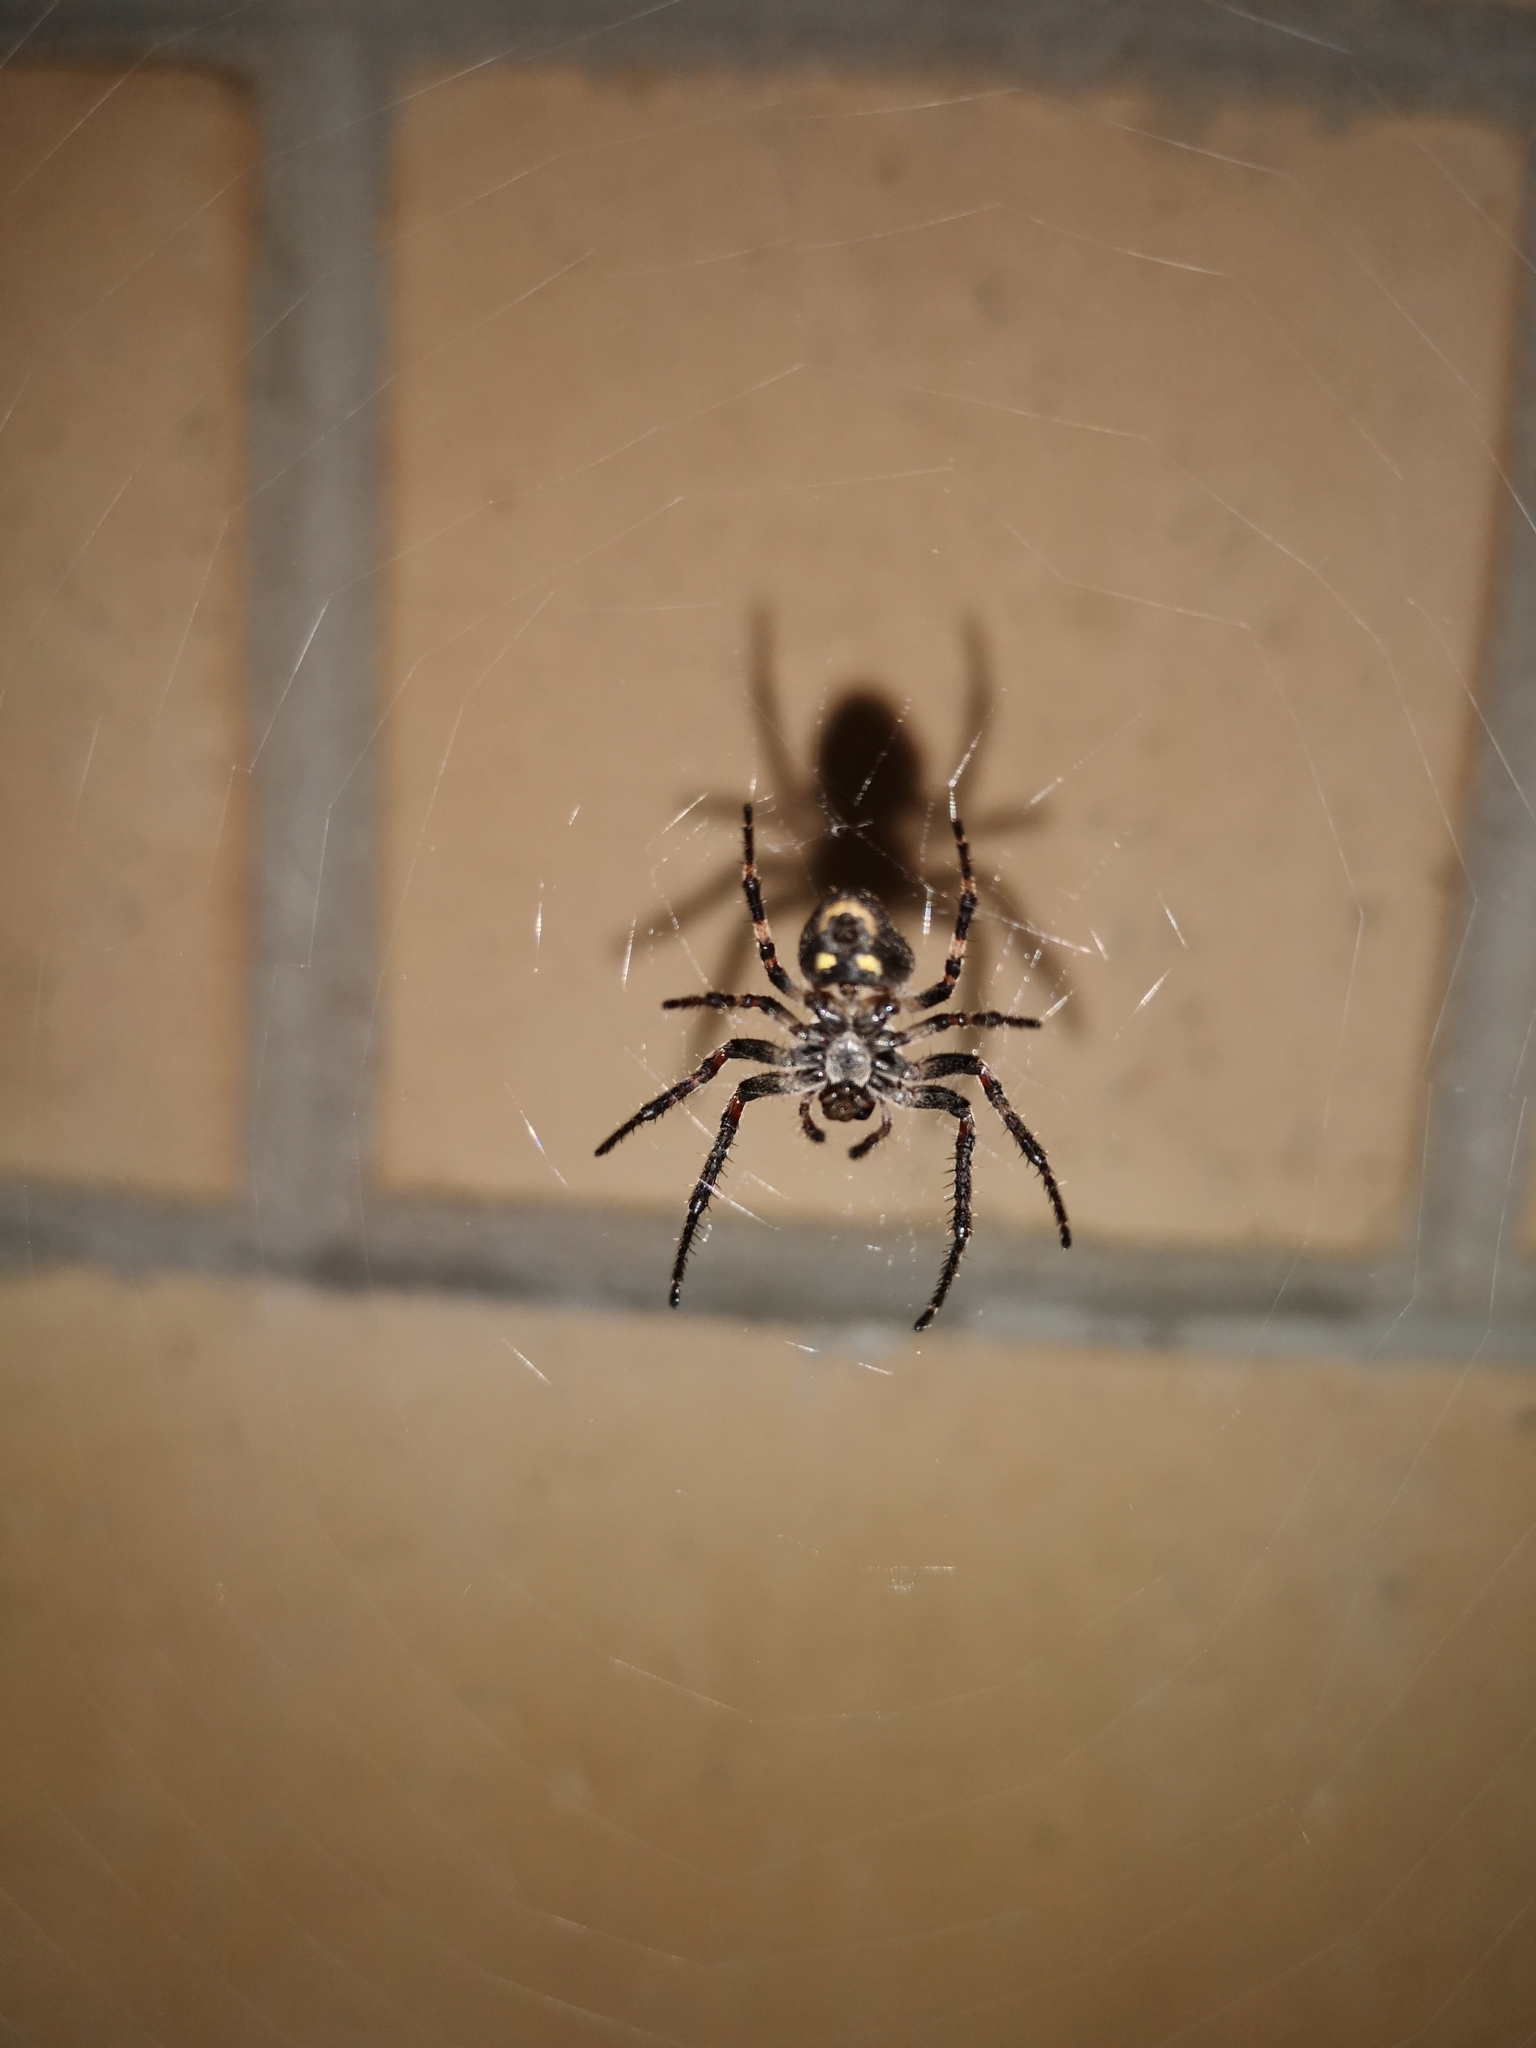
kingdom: Animalia
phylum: Arthropoda
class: Arachnida
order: Araneae
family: Araneidae
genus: Nuctenea
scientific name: Nuctenea umbratica
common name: Toad spider
